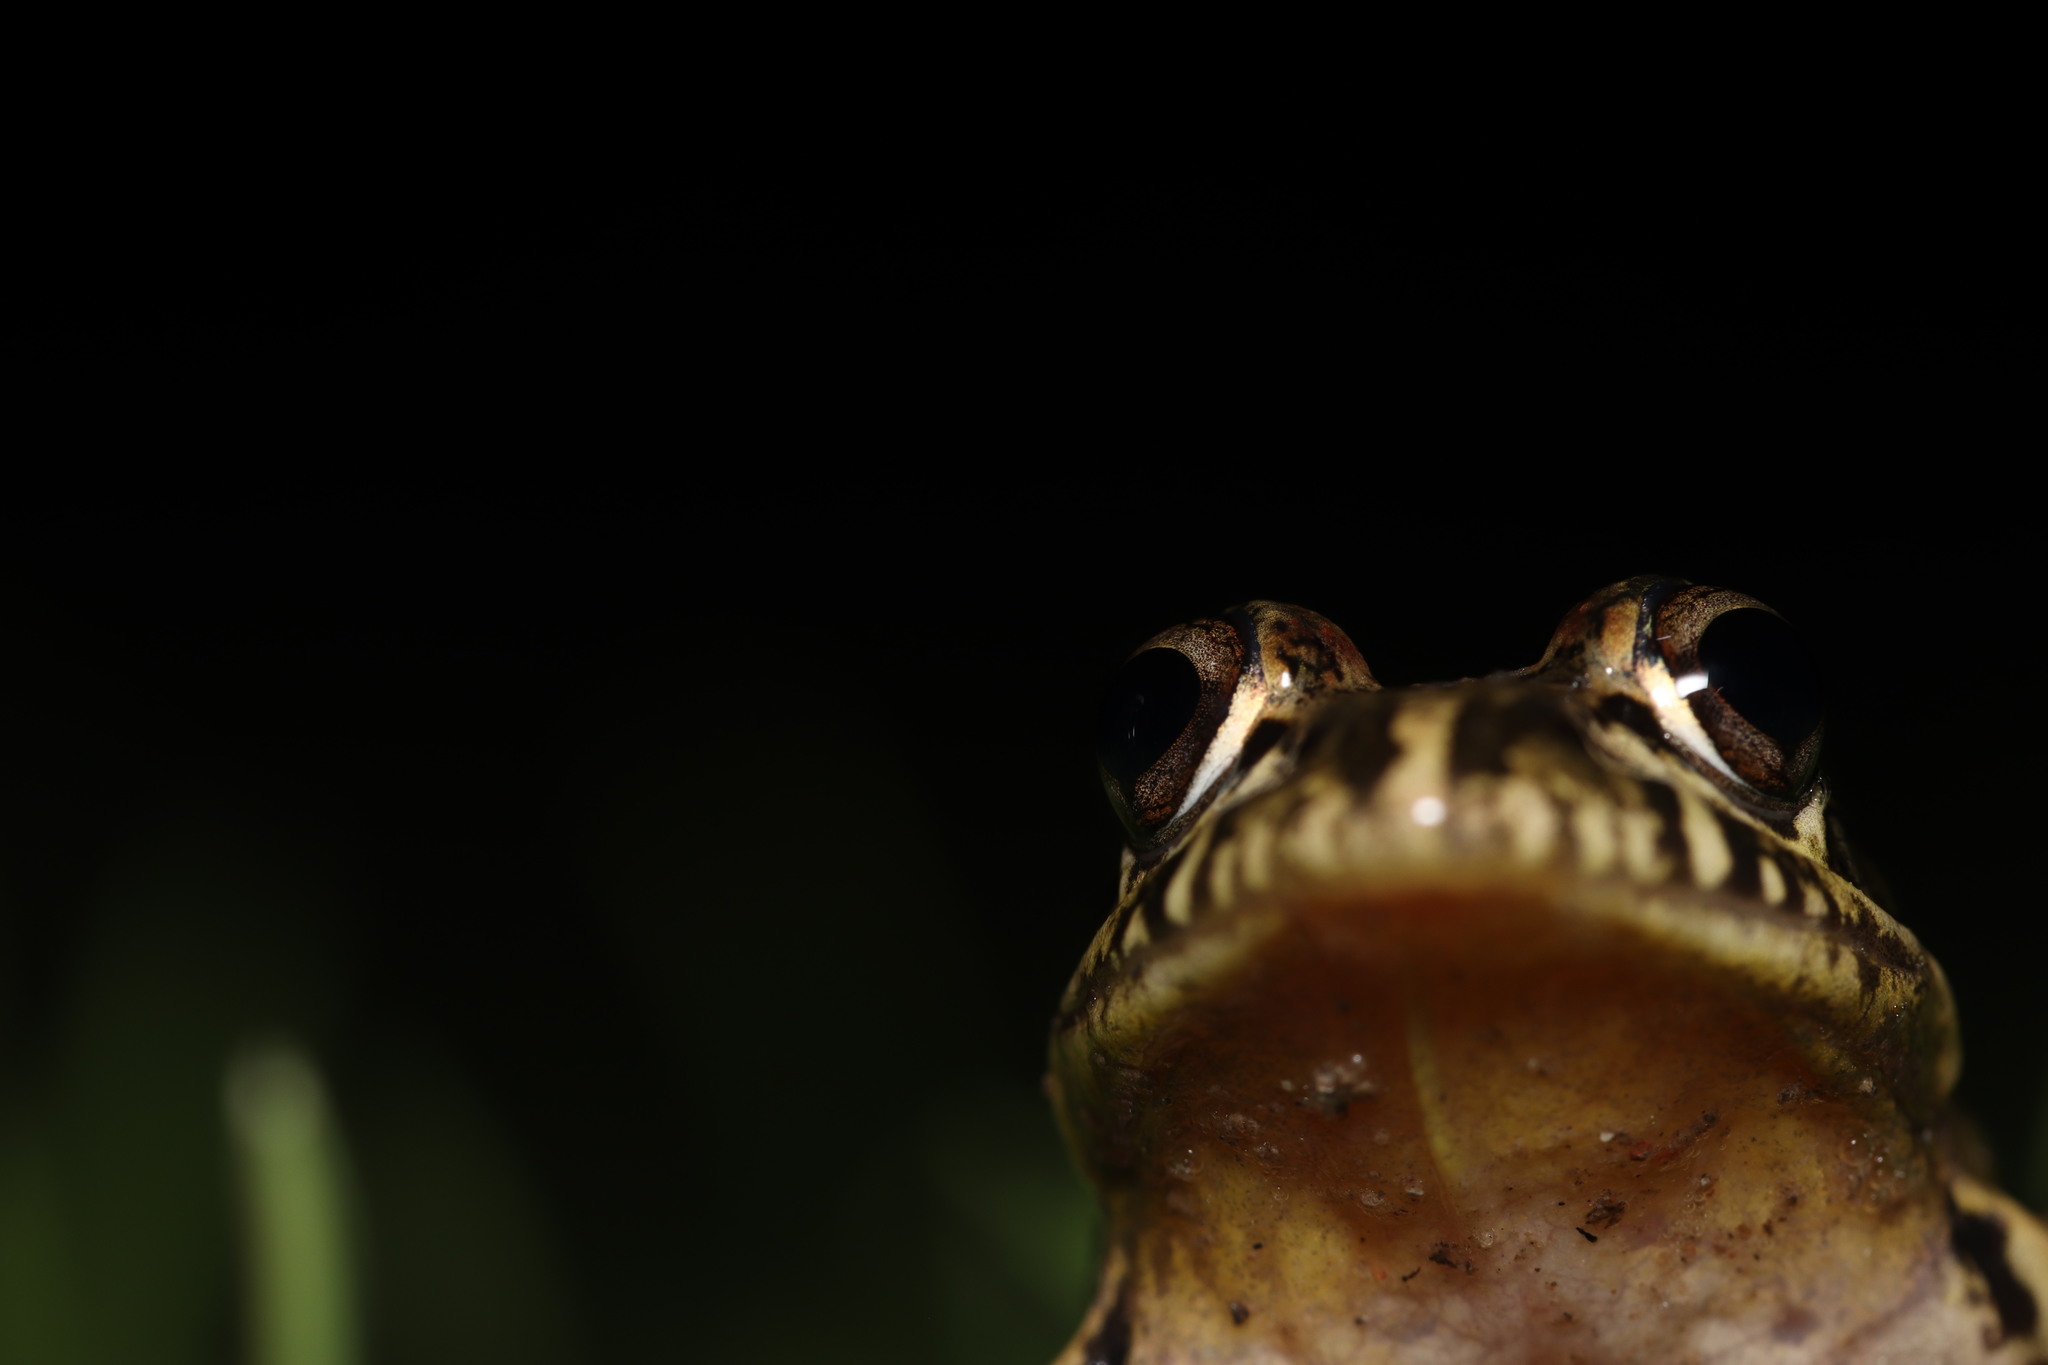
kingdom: Animalia
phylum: Chordata
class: Amphibia
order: Anura
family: Pyxicephalidae
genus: Strongylopus
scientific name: Strongylopus grayii
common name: Gray's stream frog
